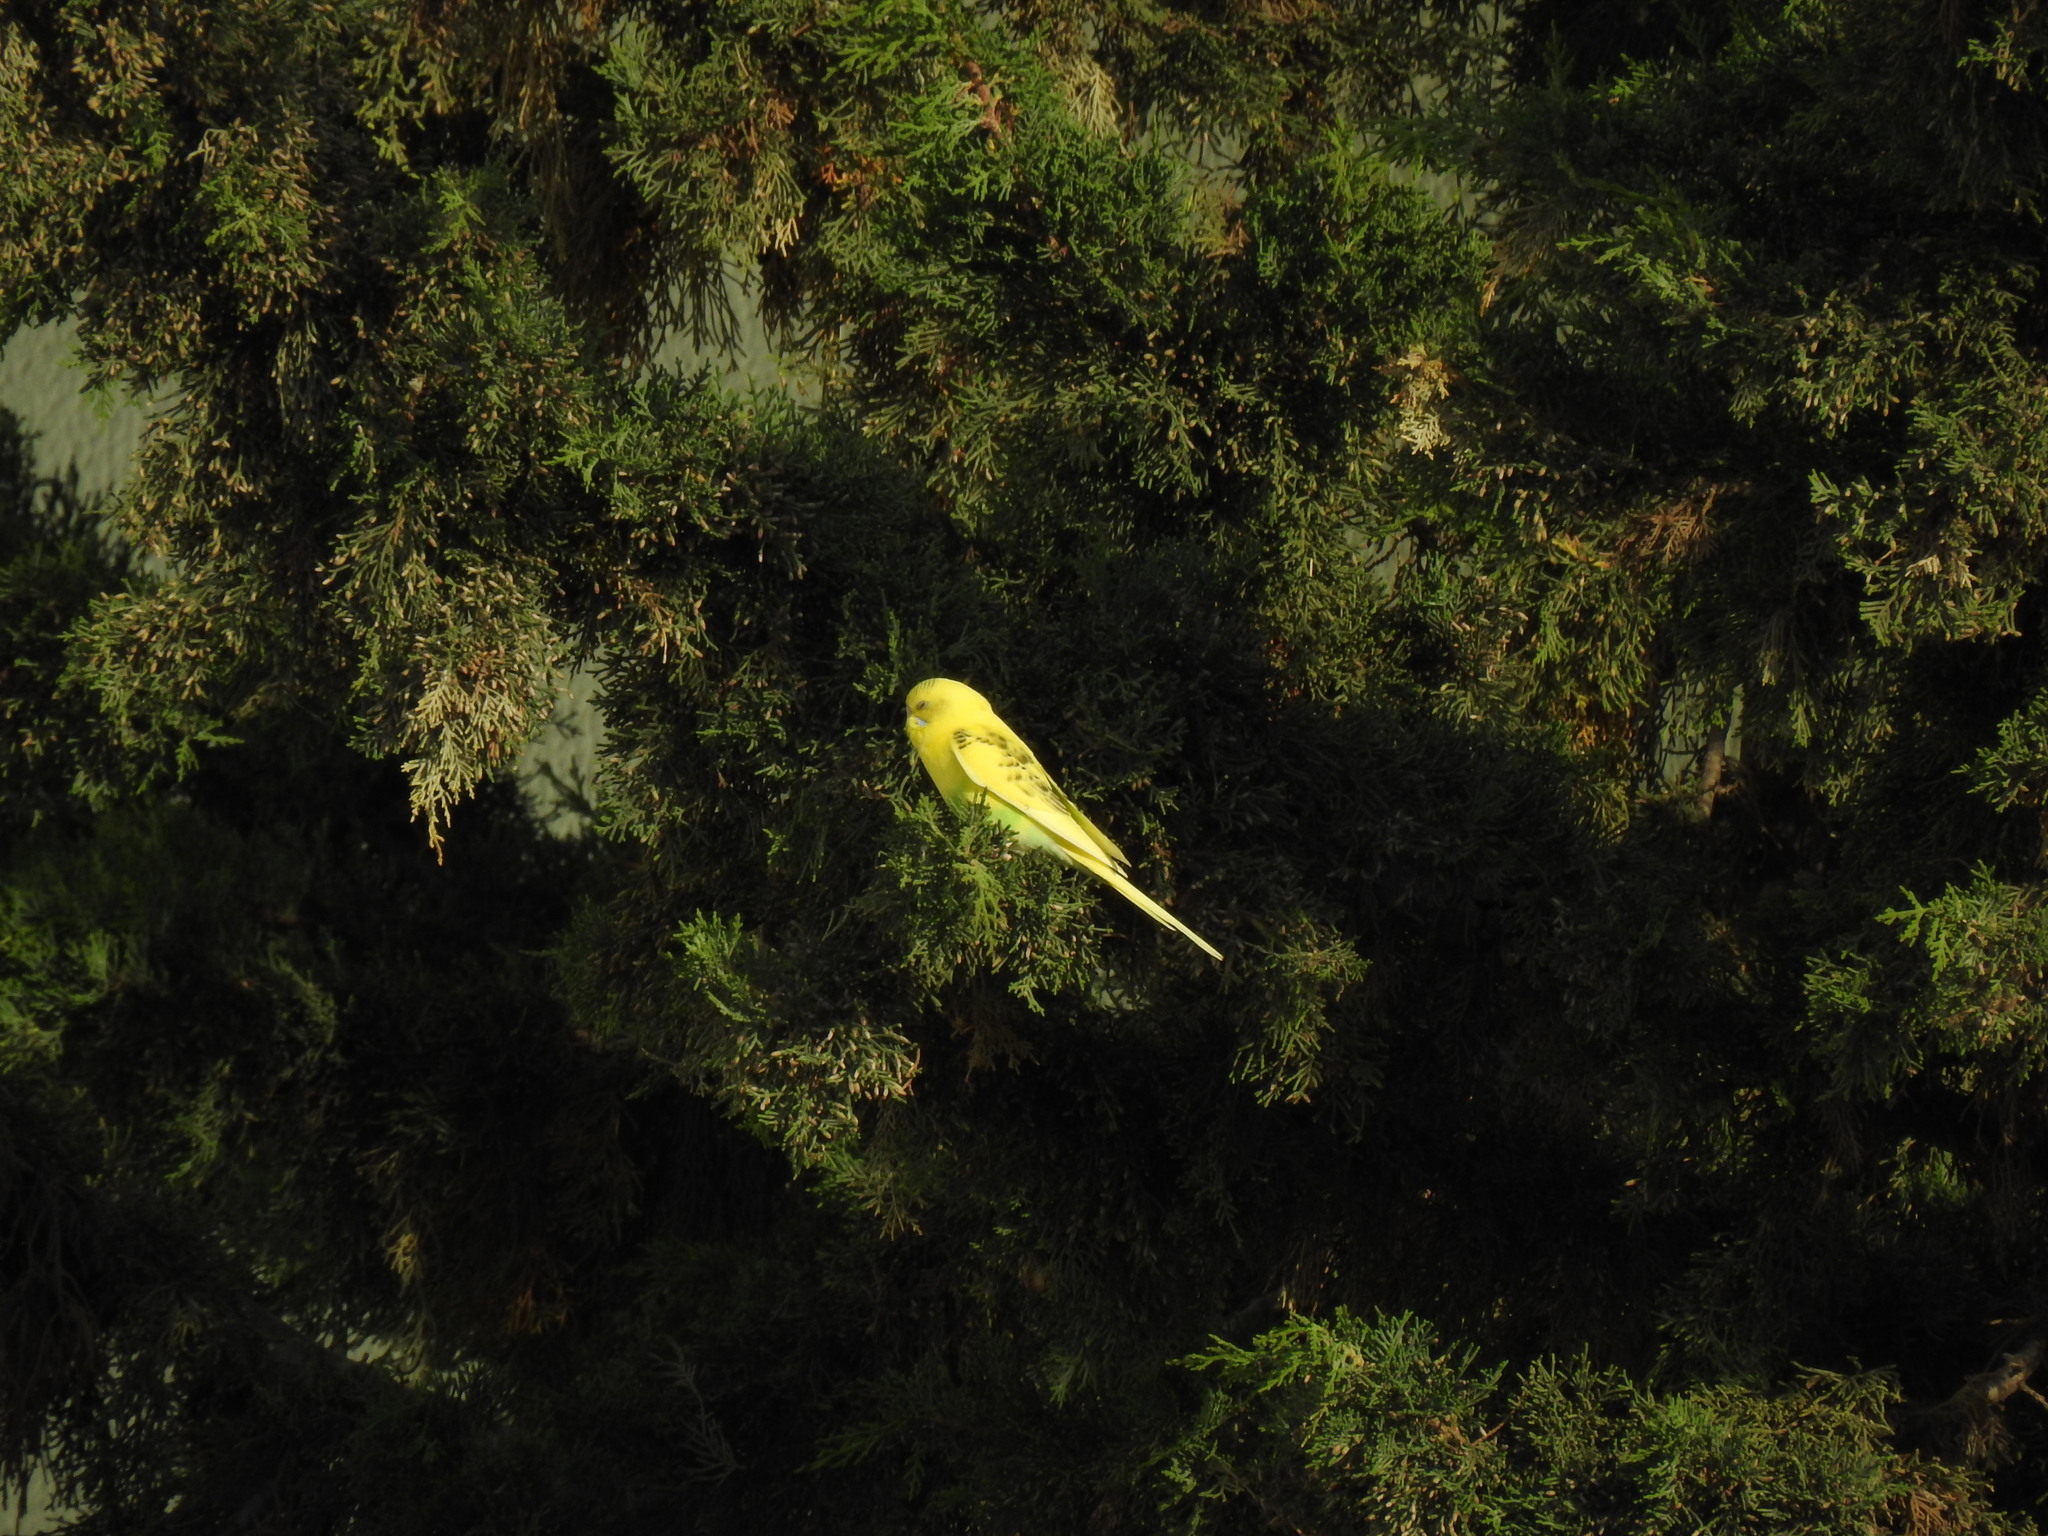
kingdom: Animalia
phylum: Chordata
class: Aves
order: Psittaciformes
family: Psittacidae
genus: Melopsittacus
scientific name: Melopsittacus undulatus
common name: Budgerigar
